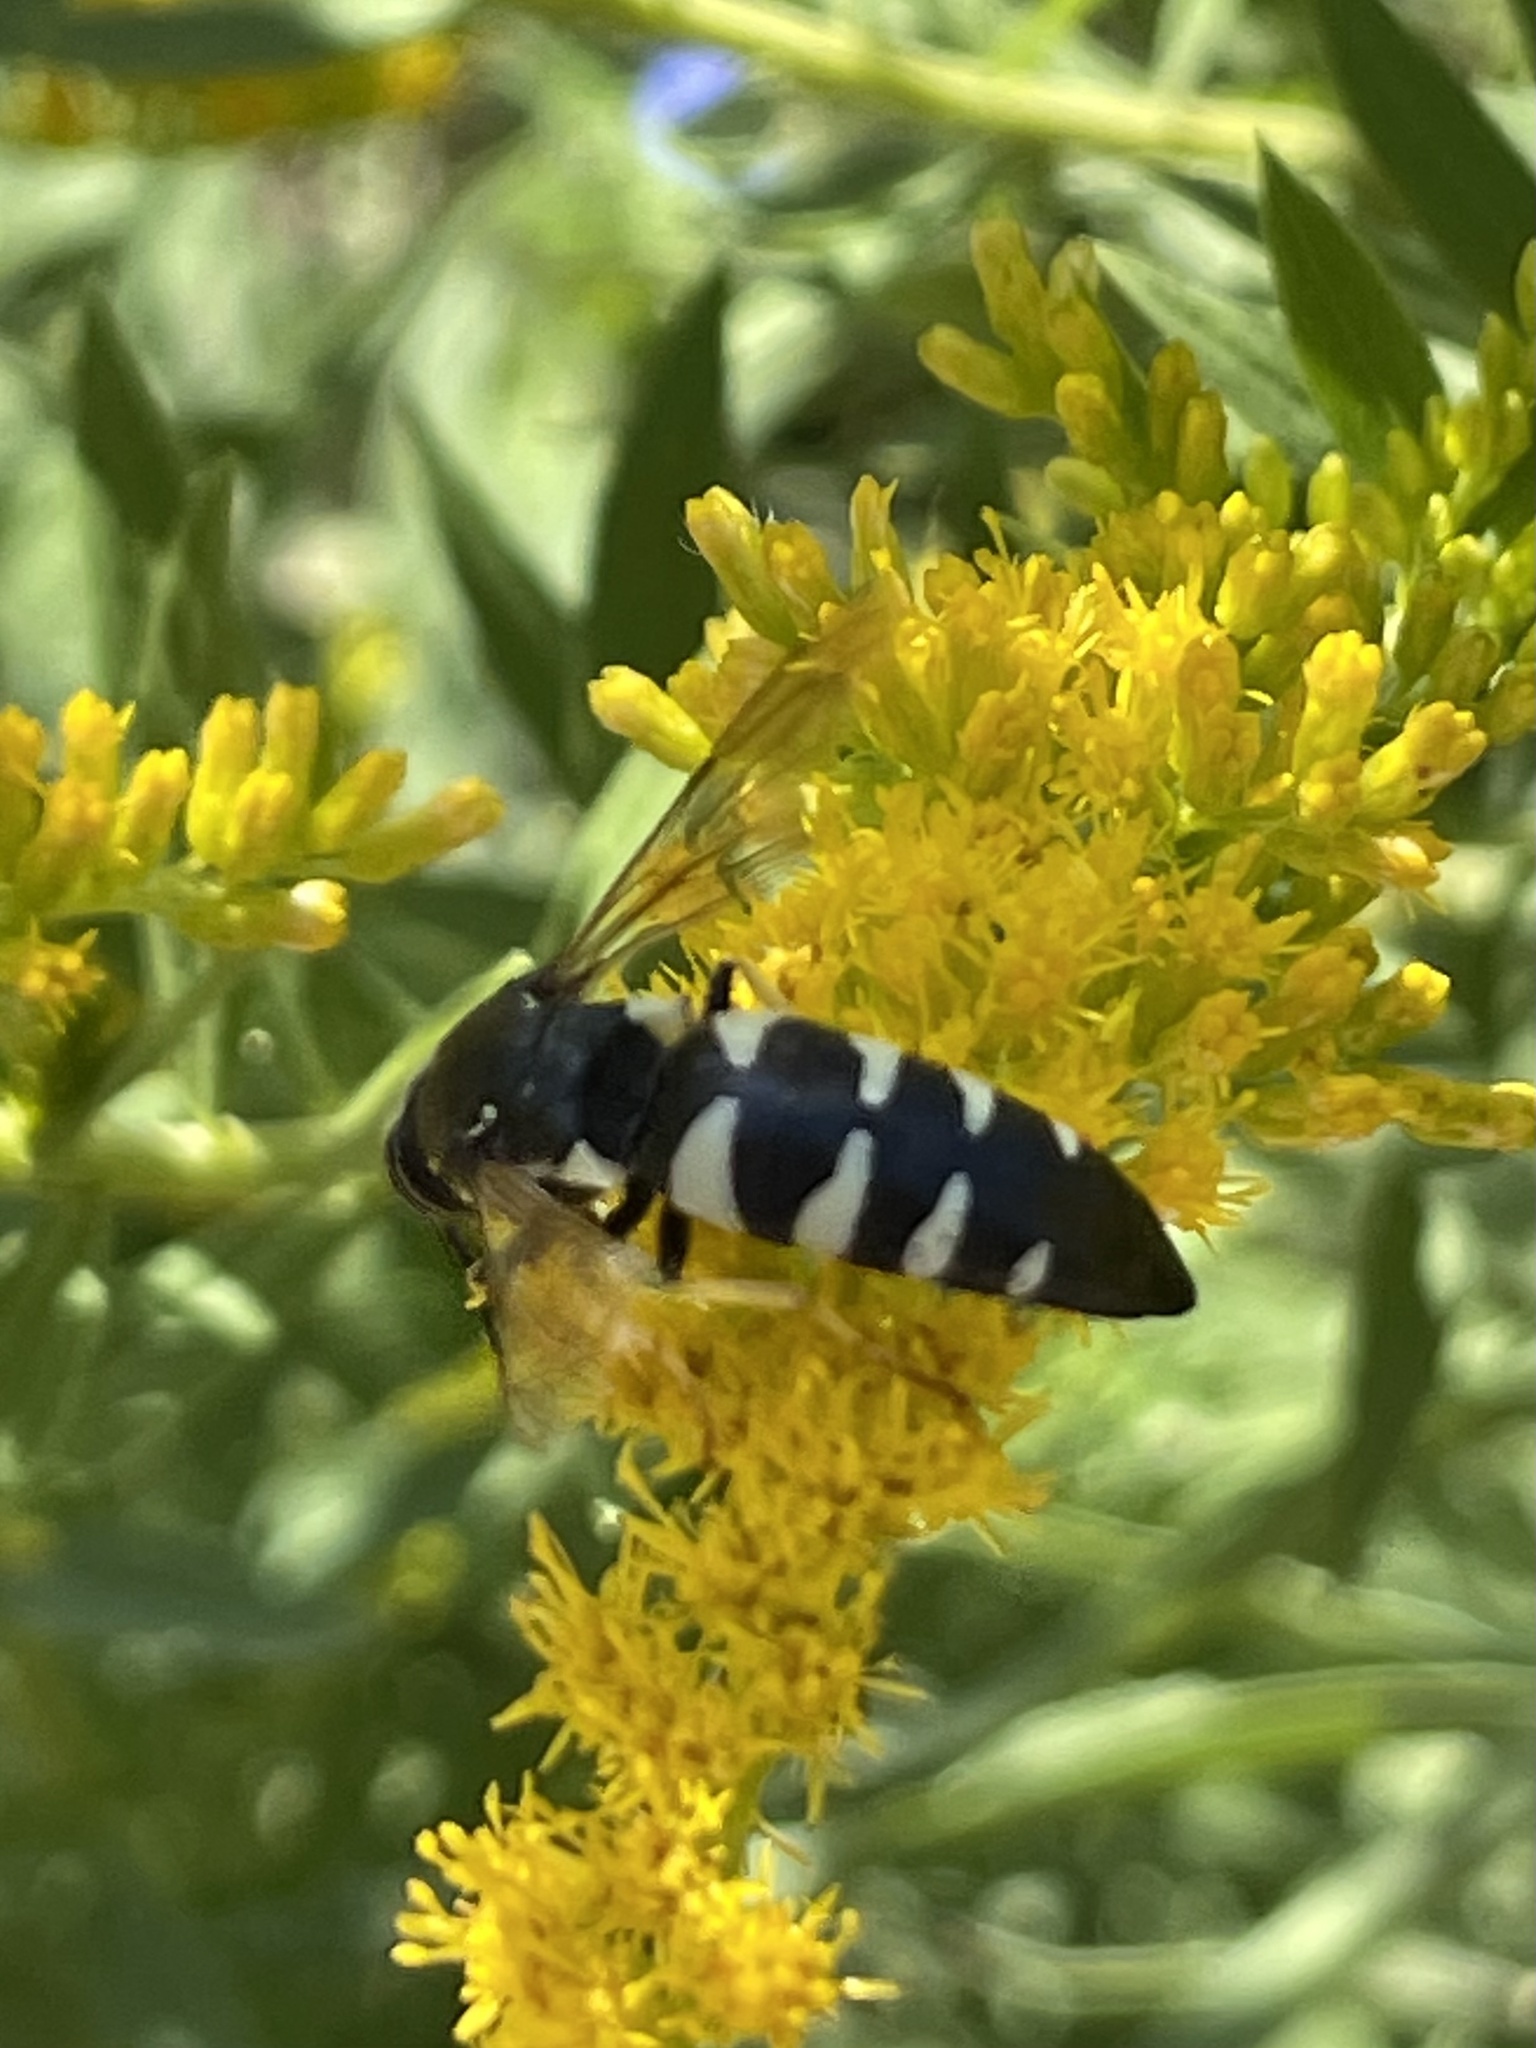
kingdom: Animalia
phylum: Arthropoda
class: Insecta
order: Hymenoptera
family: Crabronidae
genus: Bicyrtes
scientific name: Bicyrtes quadrifasciatus
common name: Four-banded stink bug hunter wasp
